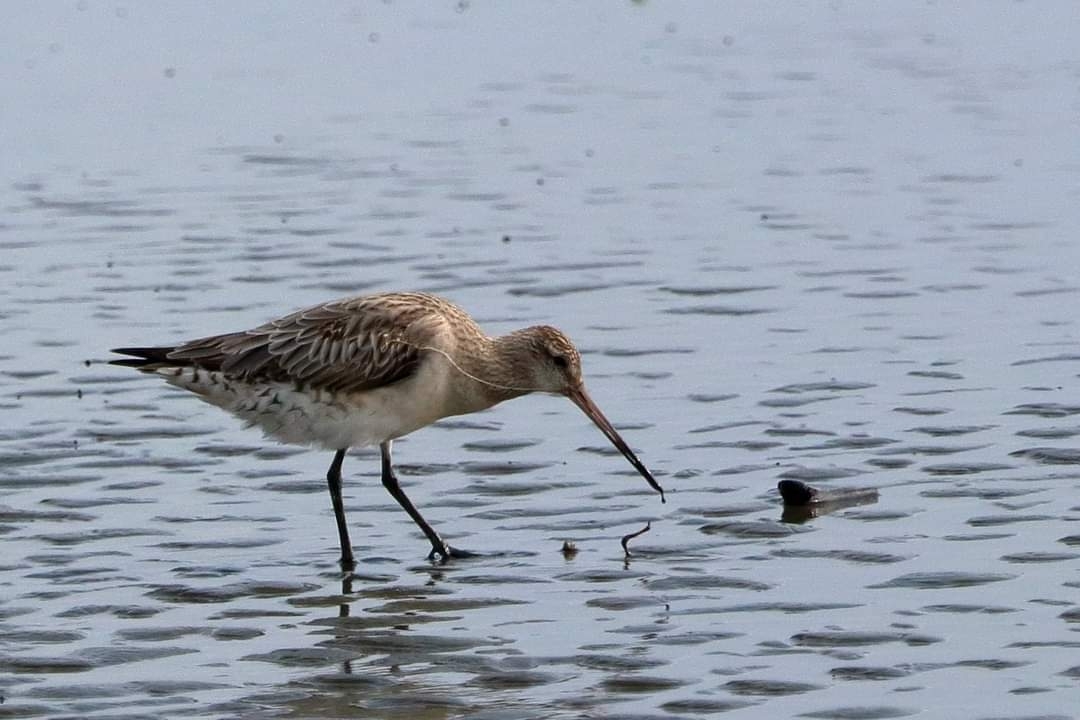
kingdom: Animalia
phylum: Chordata
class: Aves
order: Charadriiformes
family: Scolopacidae
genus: Limosa
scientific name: Limosa lapponica
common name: Bar-tailed godwit
